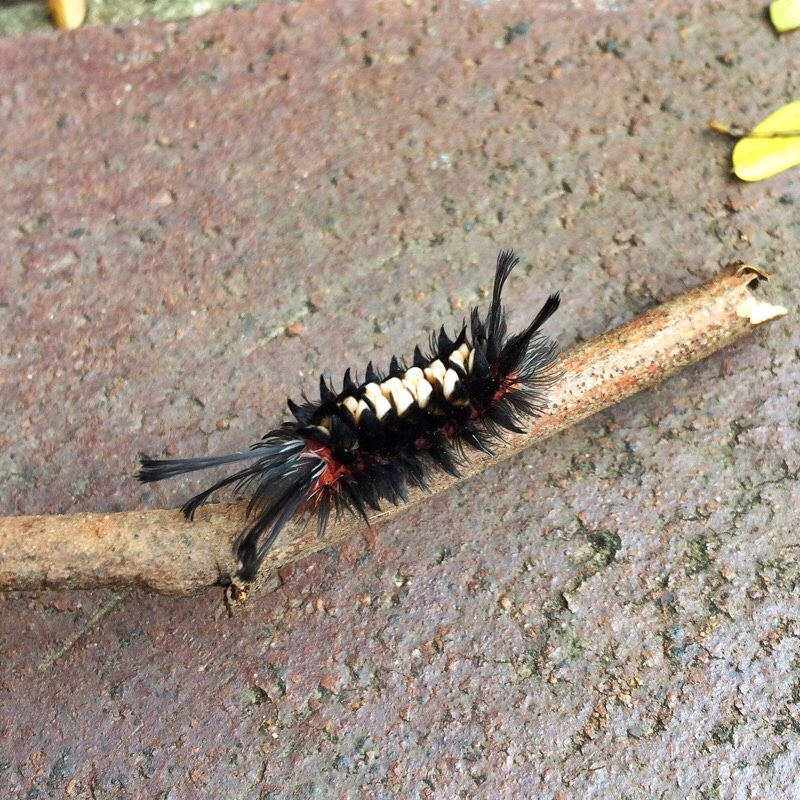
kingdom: Animalia
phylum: Arthropoda
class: Insecta
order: Lepidoptera
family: Erebidae
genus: Euchromia
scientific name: Euchromia amoena
